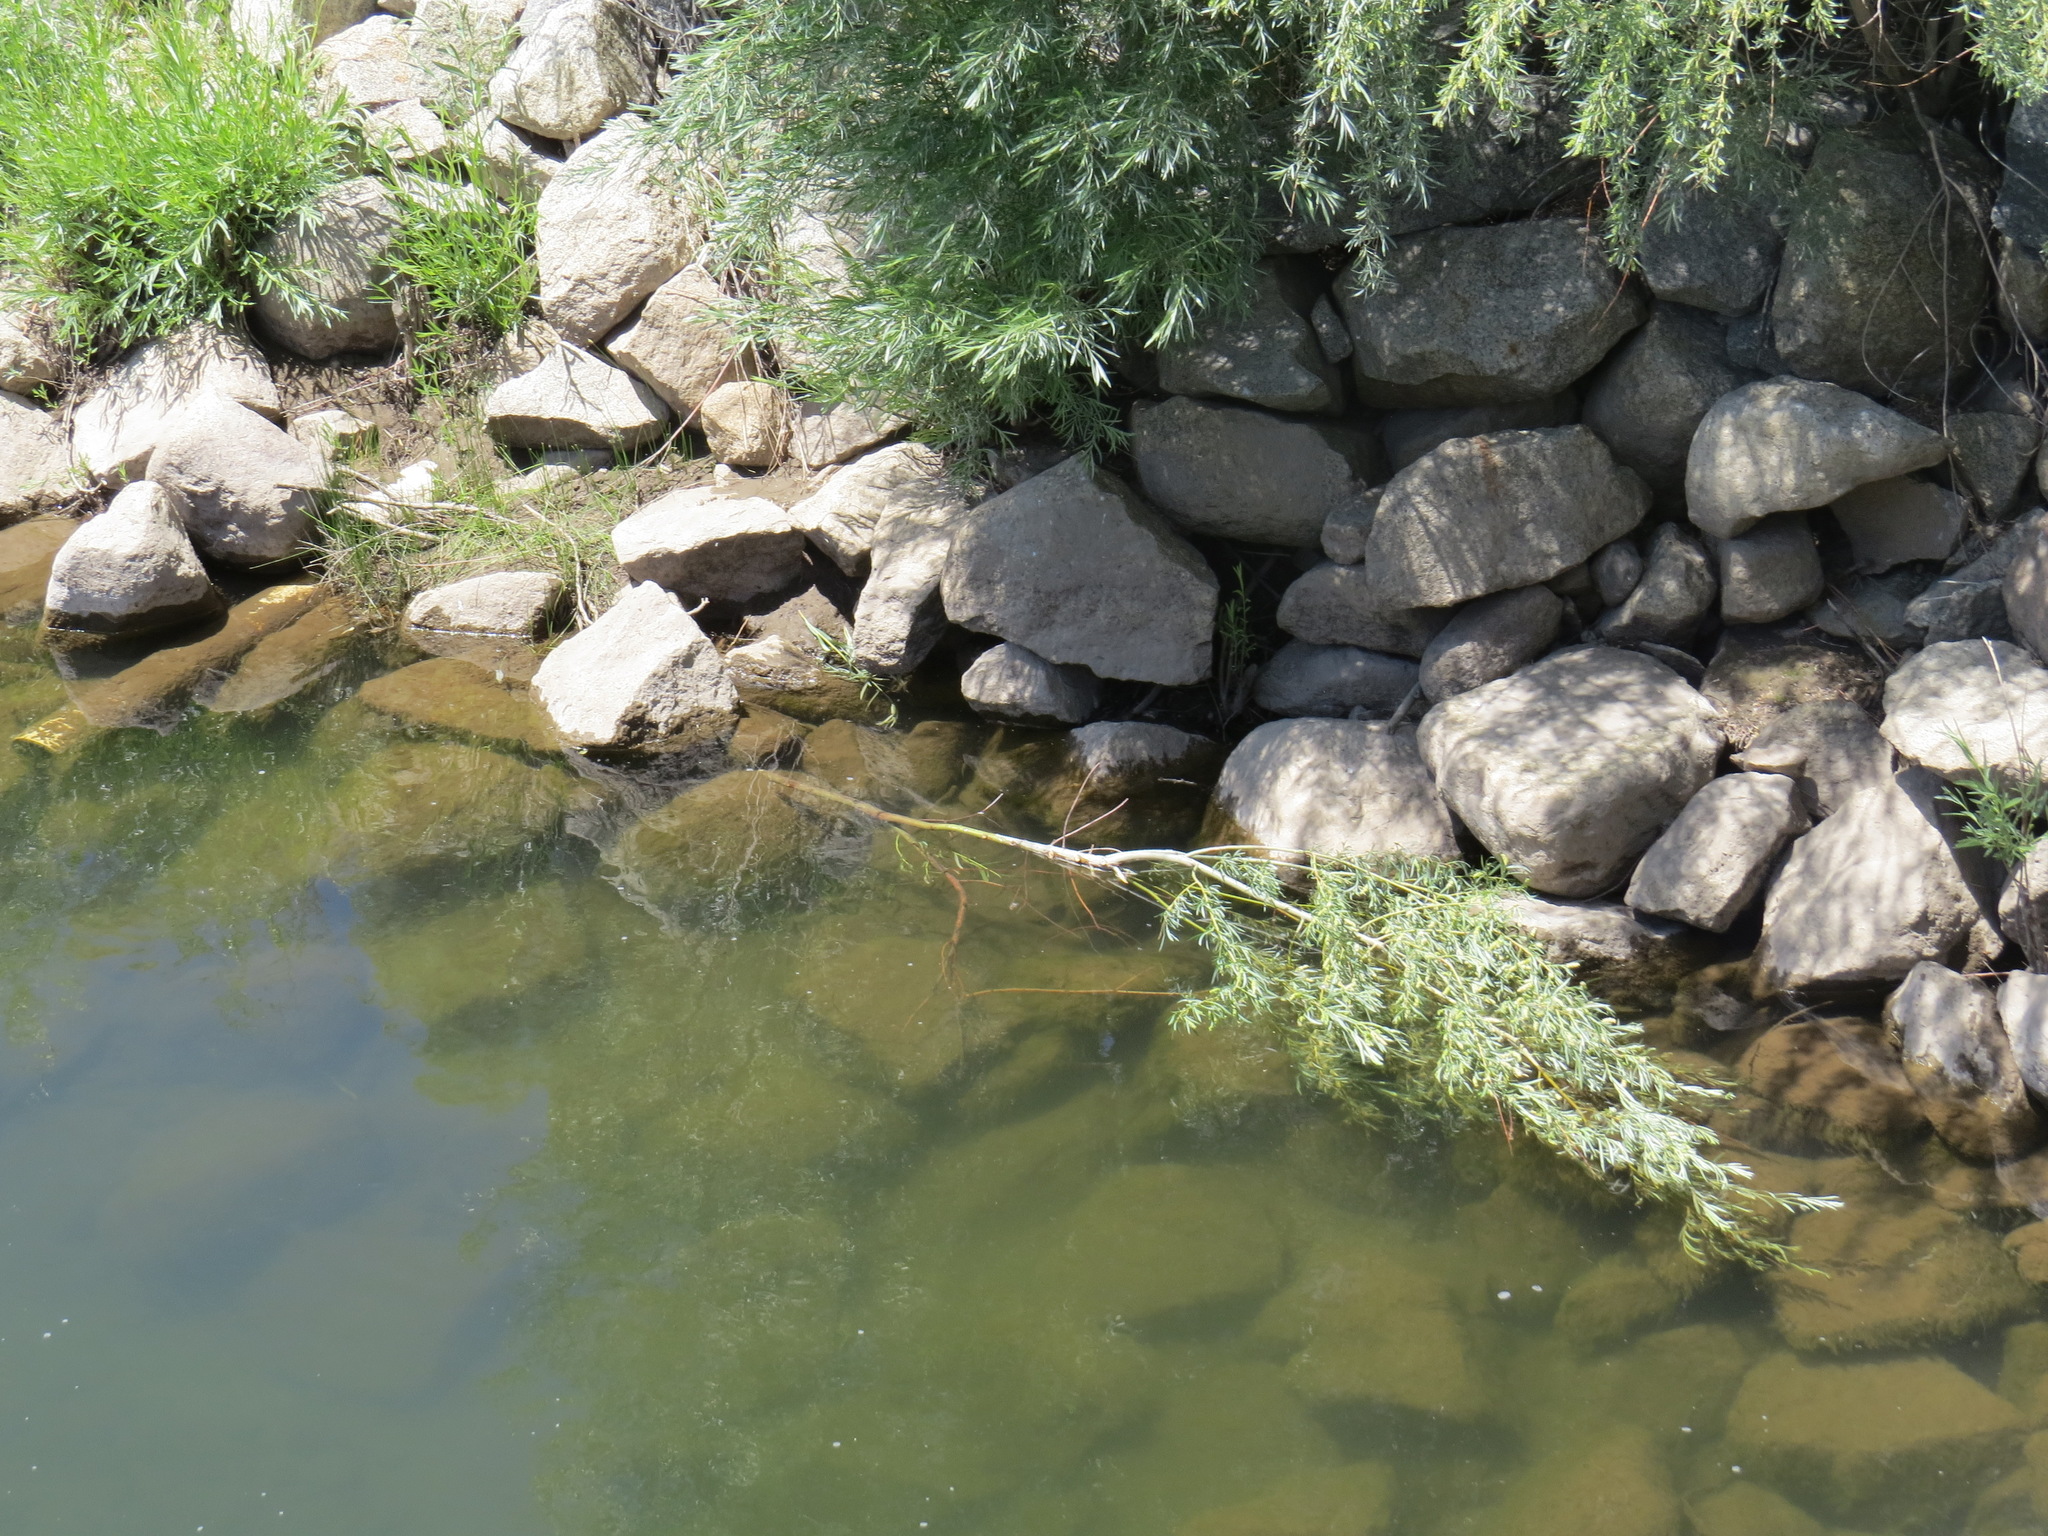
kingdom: Animalia
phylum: Chordata
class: Mammalia
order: Rodentia
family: Castoridae
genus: Castor
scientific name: Castor canadensis
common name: American beaver
